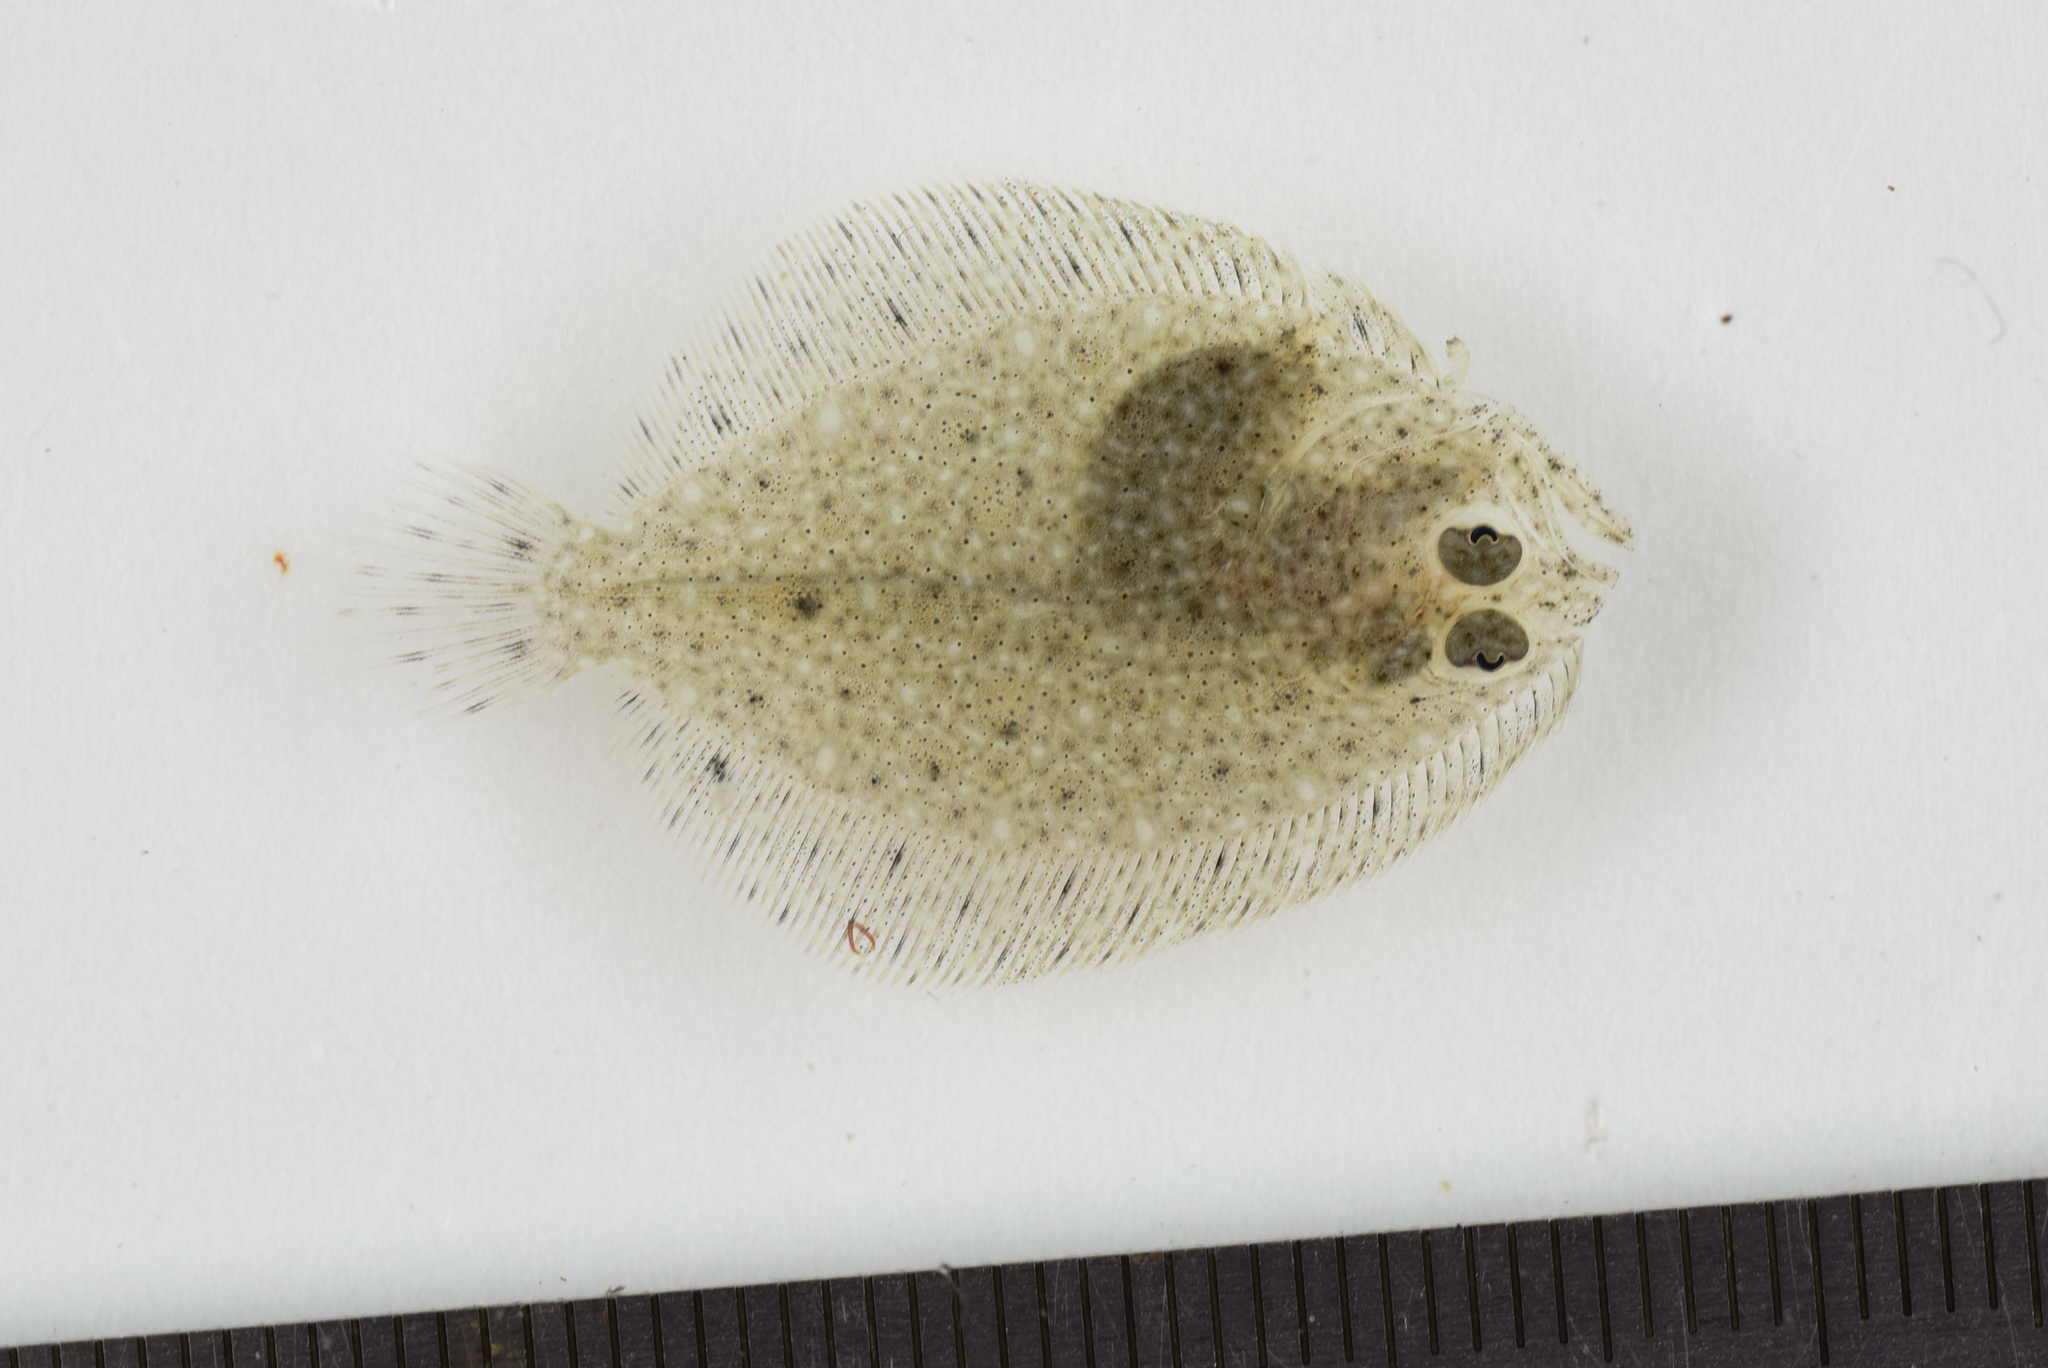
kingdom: Animalia
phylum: Chordata
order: Pleuronectiformes
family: Scophthalmidae
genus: Scophthalmus
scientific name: Scophthalmus rhombus
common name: Brill
